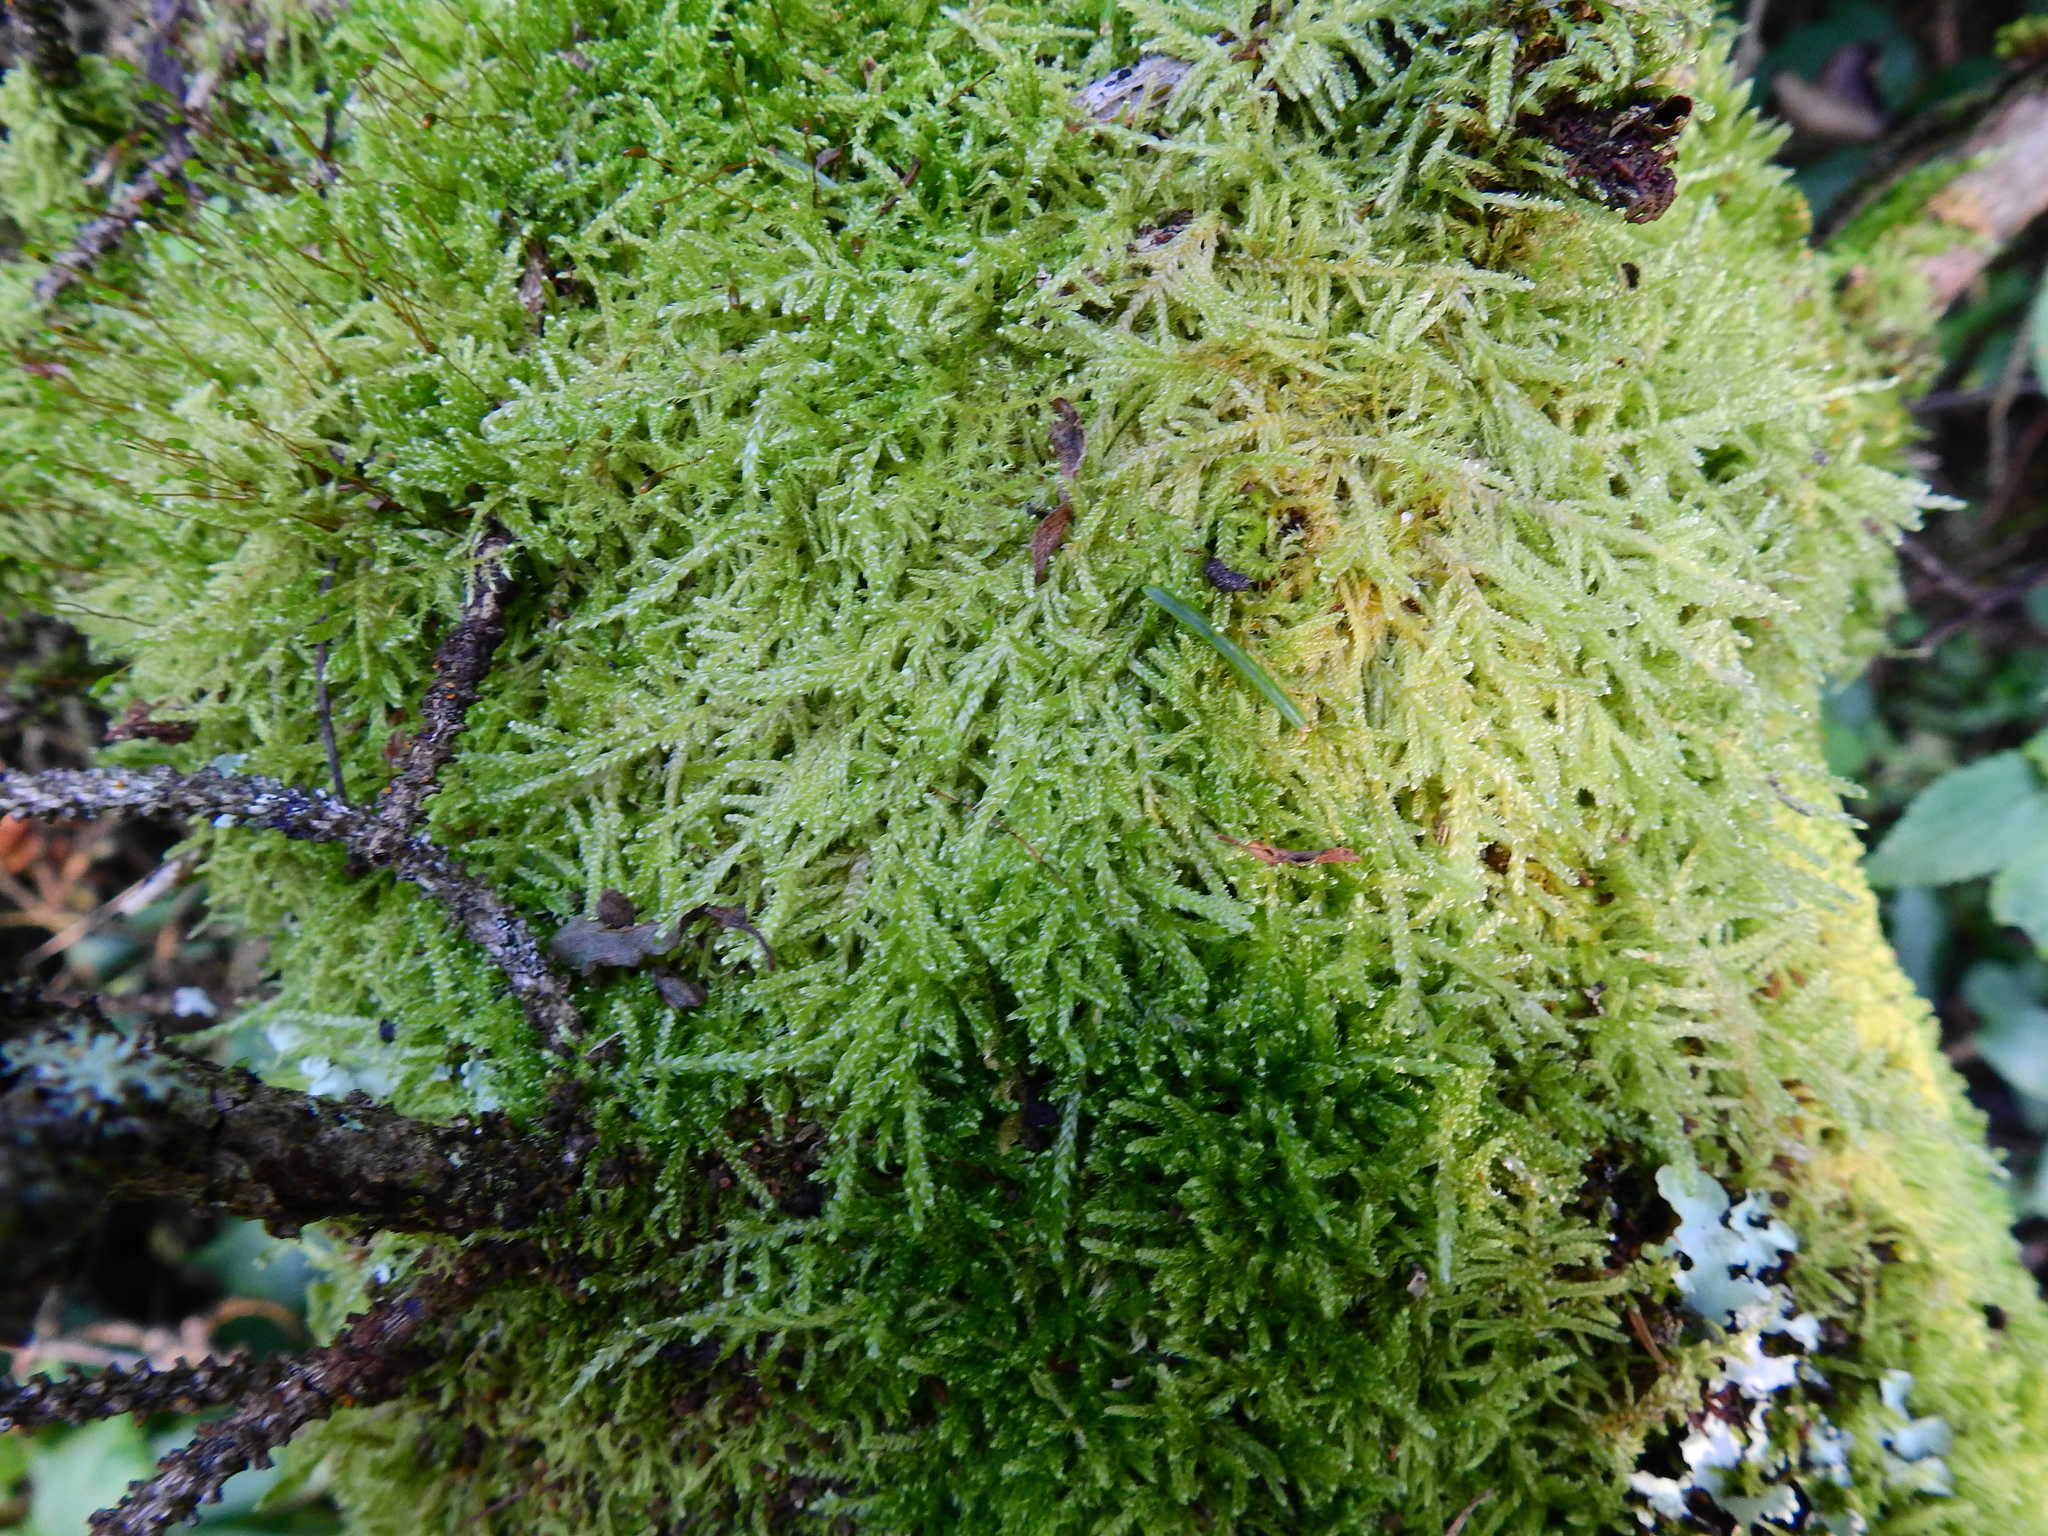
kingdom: Plantae
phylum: Bryophyta
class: Bryopsida
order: Hypnales
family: Hypnaceae
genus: Hypnum
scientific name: Hypnum jutlandicum
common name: Heath plait-moss
